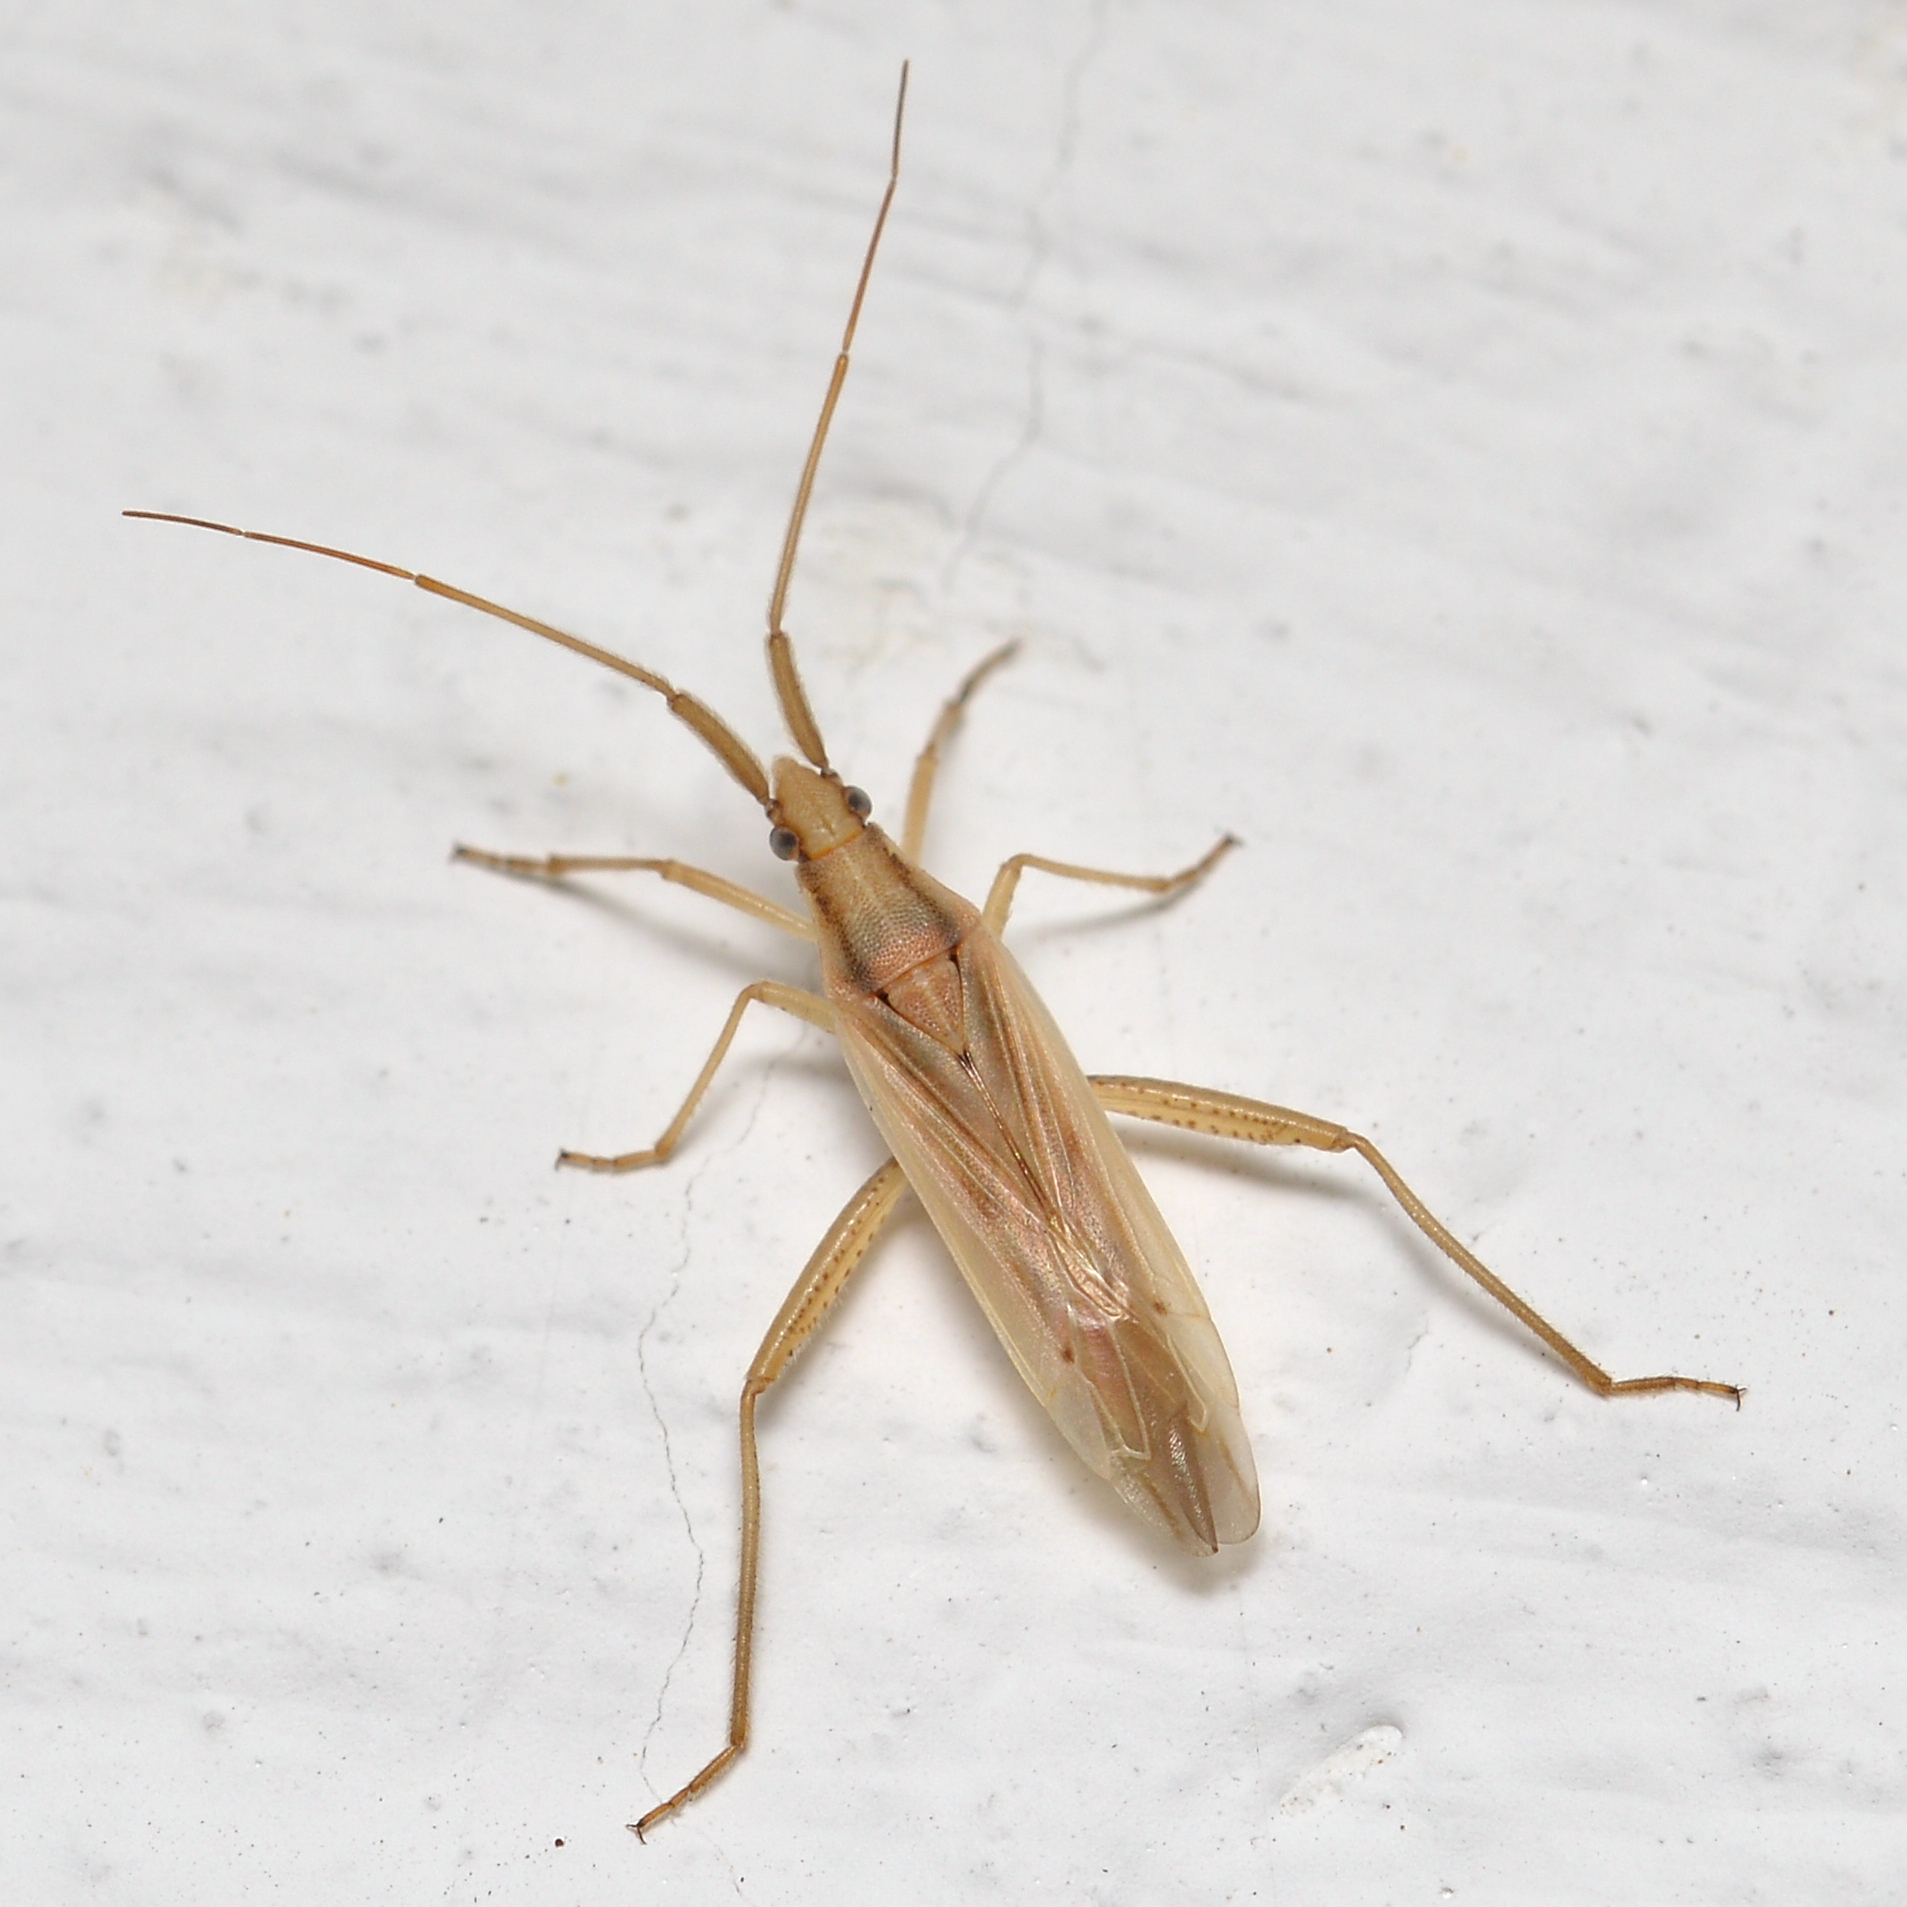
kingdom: Animalia
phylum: Arthropoda
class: Insecta
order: Hemiptera
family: Miridae
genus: Stenodema
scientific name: Stenodema laevigata
